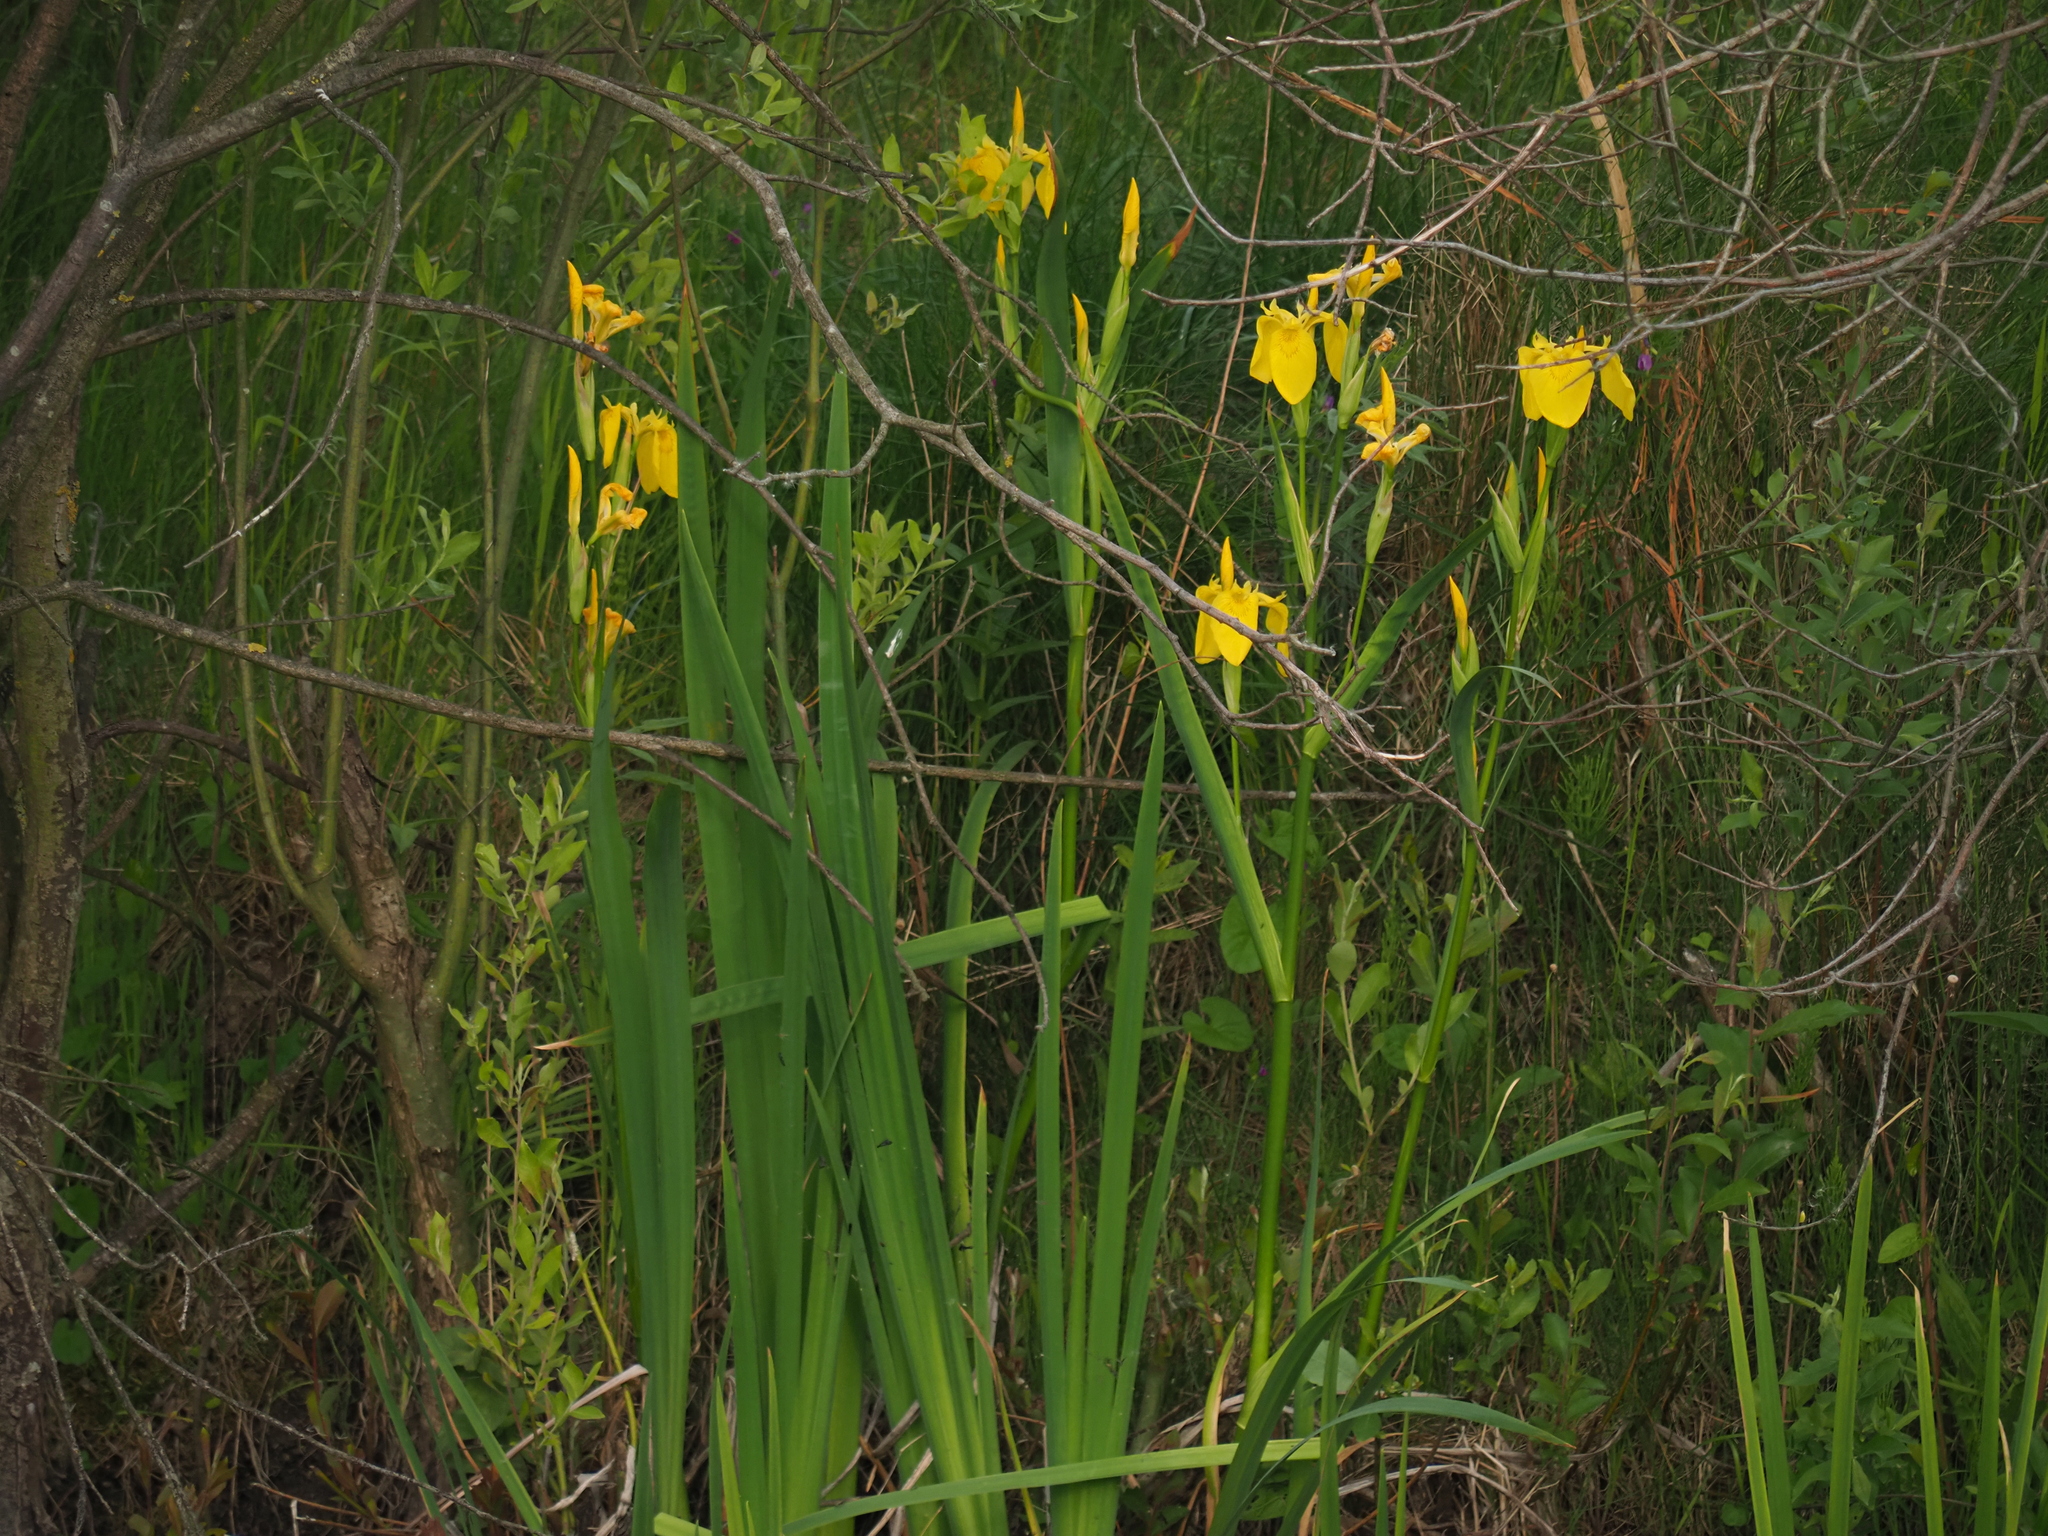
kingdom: Plantae
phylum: Tracheophyta
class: Liliopsida
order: Asparagales
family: Iridaceae
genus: Iris
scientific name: Iris pseudacorus
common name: Yellow flag
